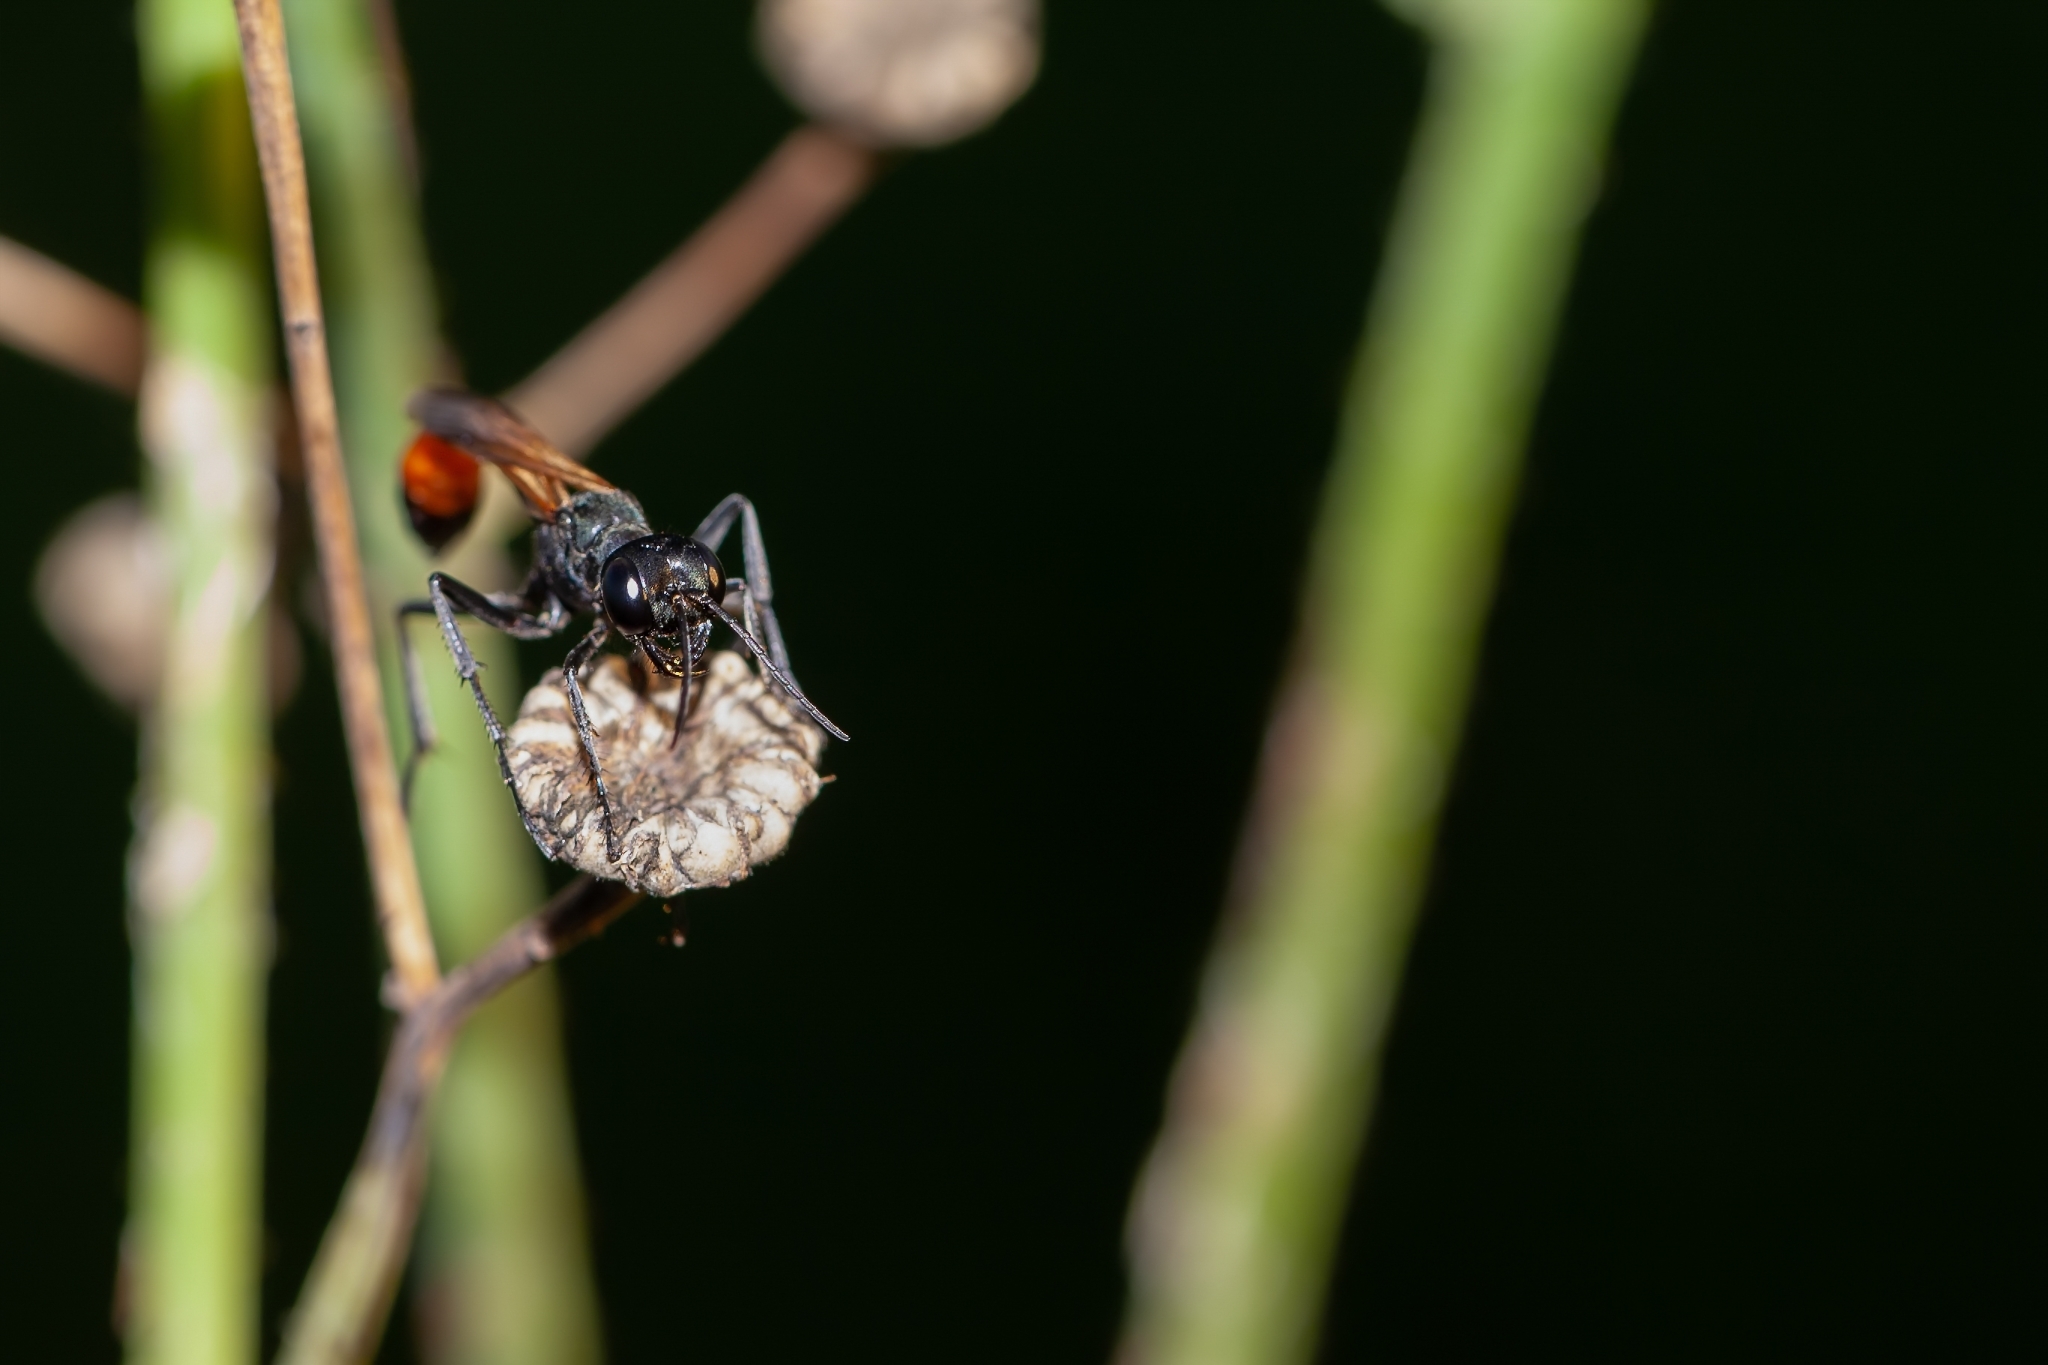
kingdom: Animalia
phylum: Arthropoda
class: Insecta
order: Hymenoptera
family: Sphecidae
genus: Ammophila
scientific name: Ammophila pictipennis
